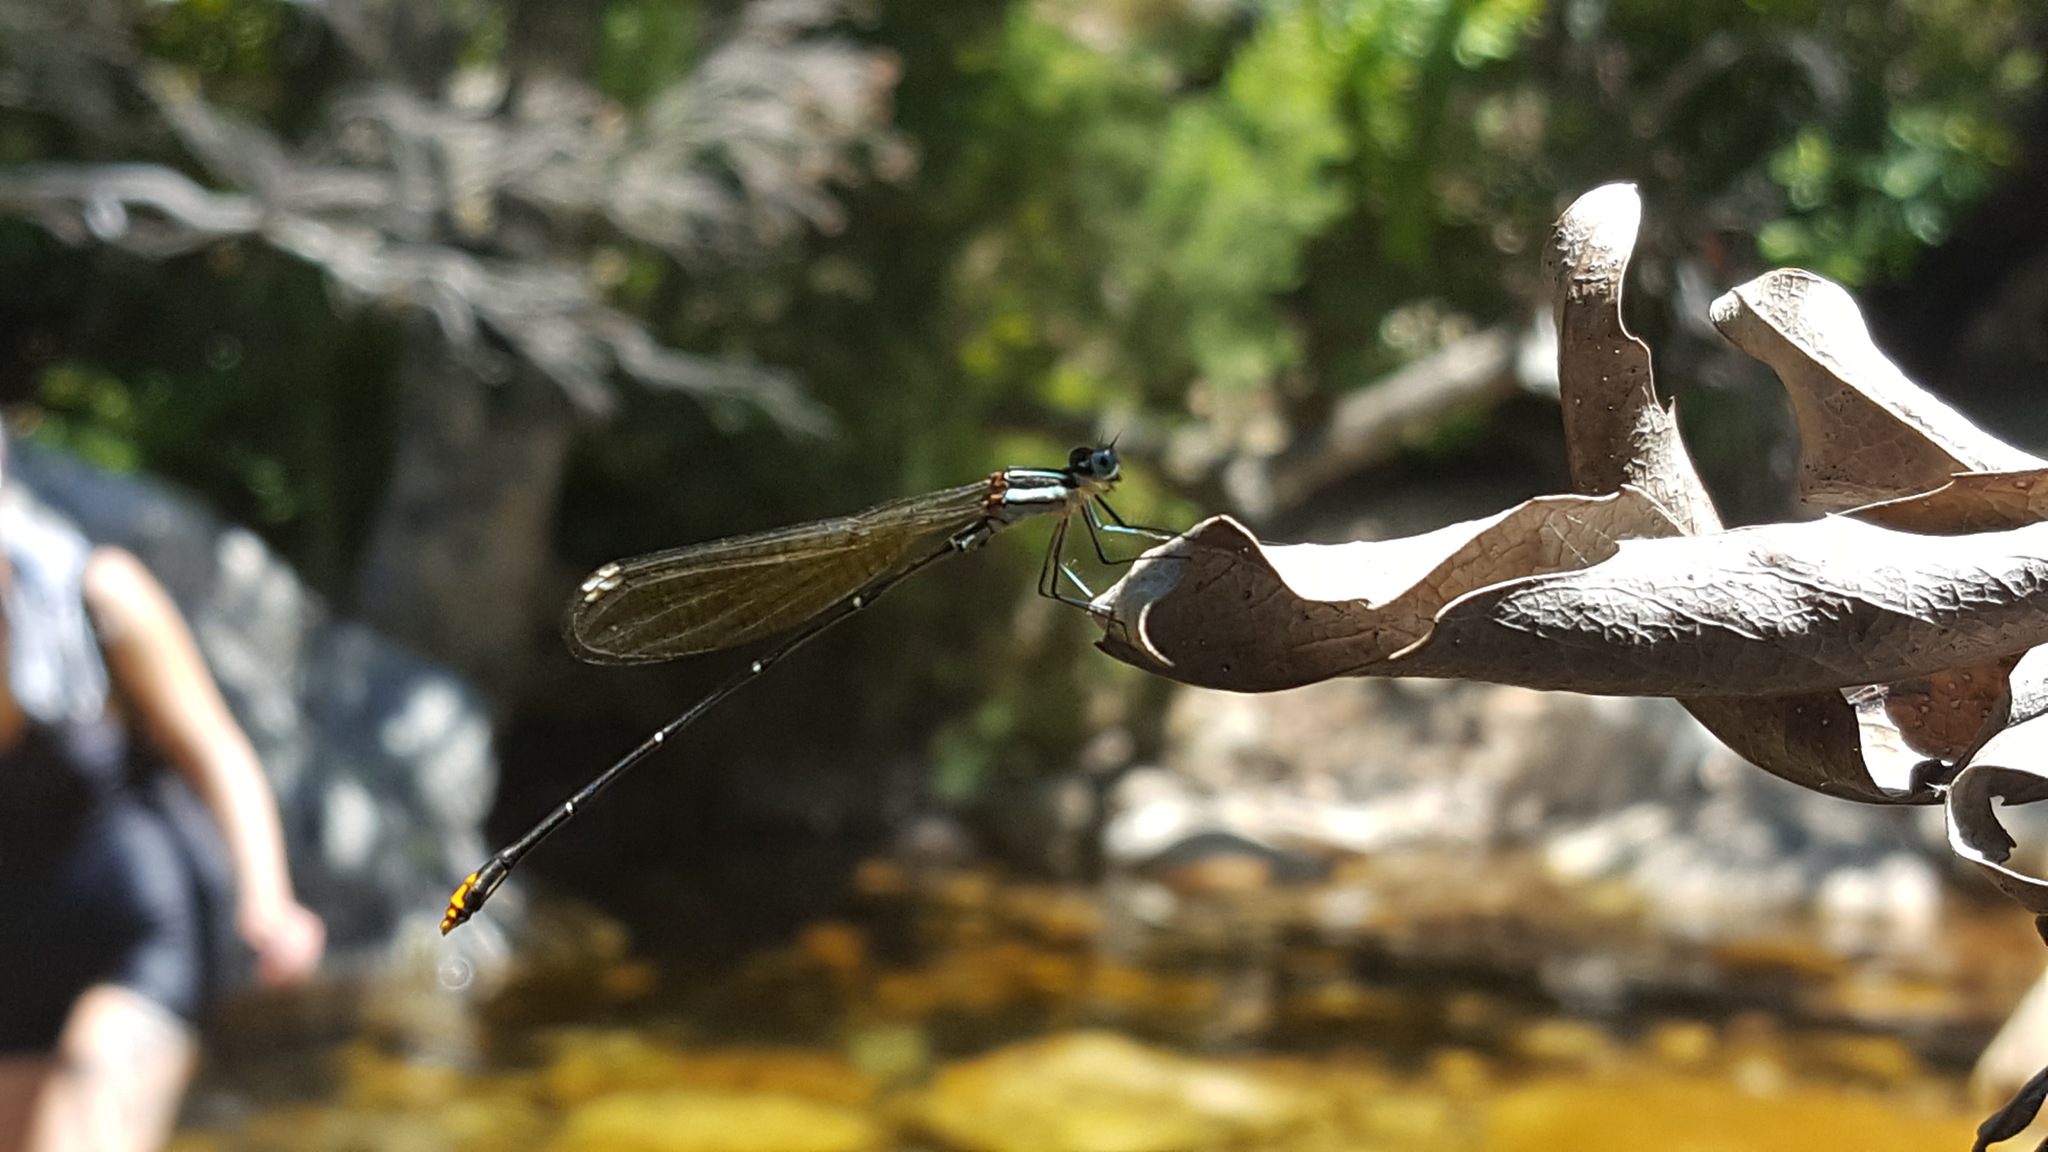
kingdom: Animalia
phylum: Arthropoda
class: Insecta
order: Odonata
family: Platycnemididae
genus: Allocnemis
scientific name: Allocnemis leucosticta
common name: Goldtail
